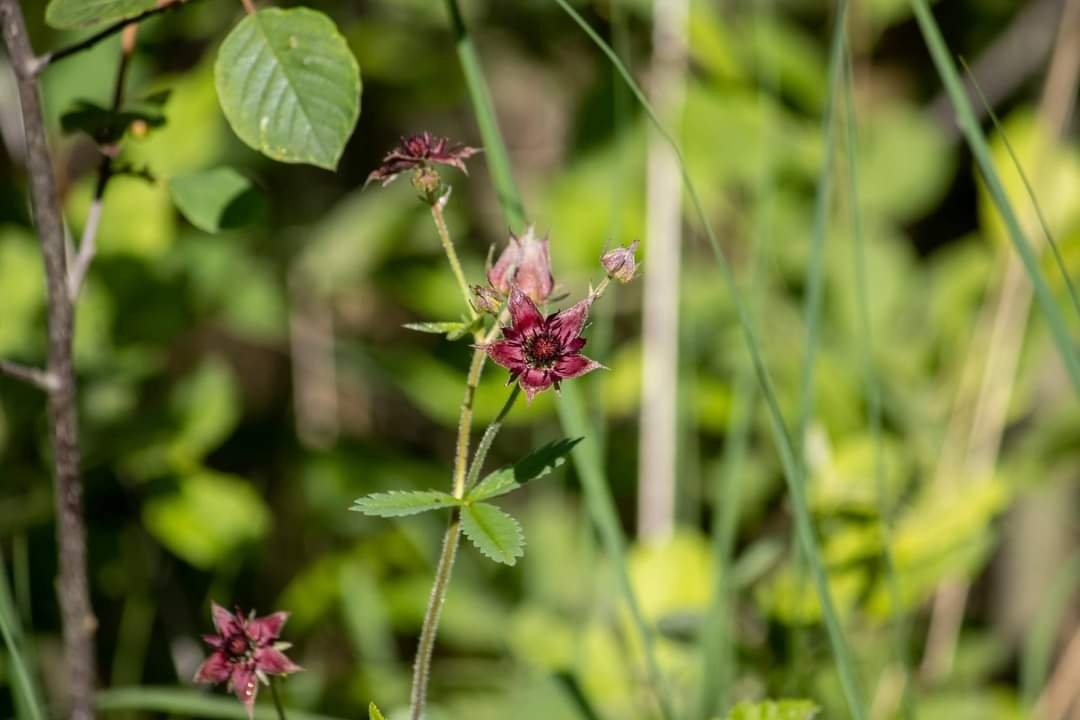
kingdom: Plantae
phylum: Tracheophyta
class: Magnoliopsida
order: Rosales
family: Rosaceae
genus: Comarum
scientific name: Comarum palustre
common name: Marsh cinquefoil
